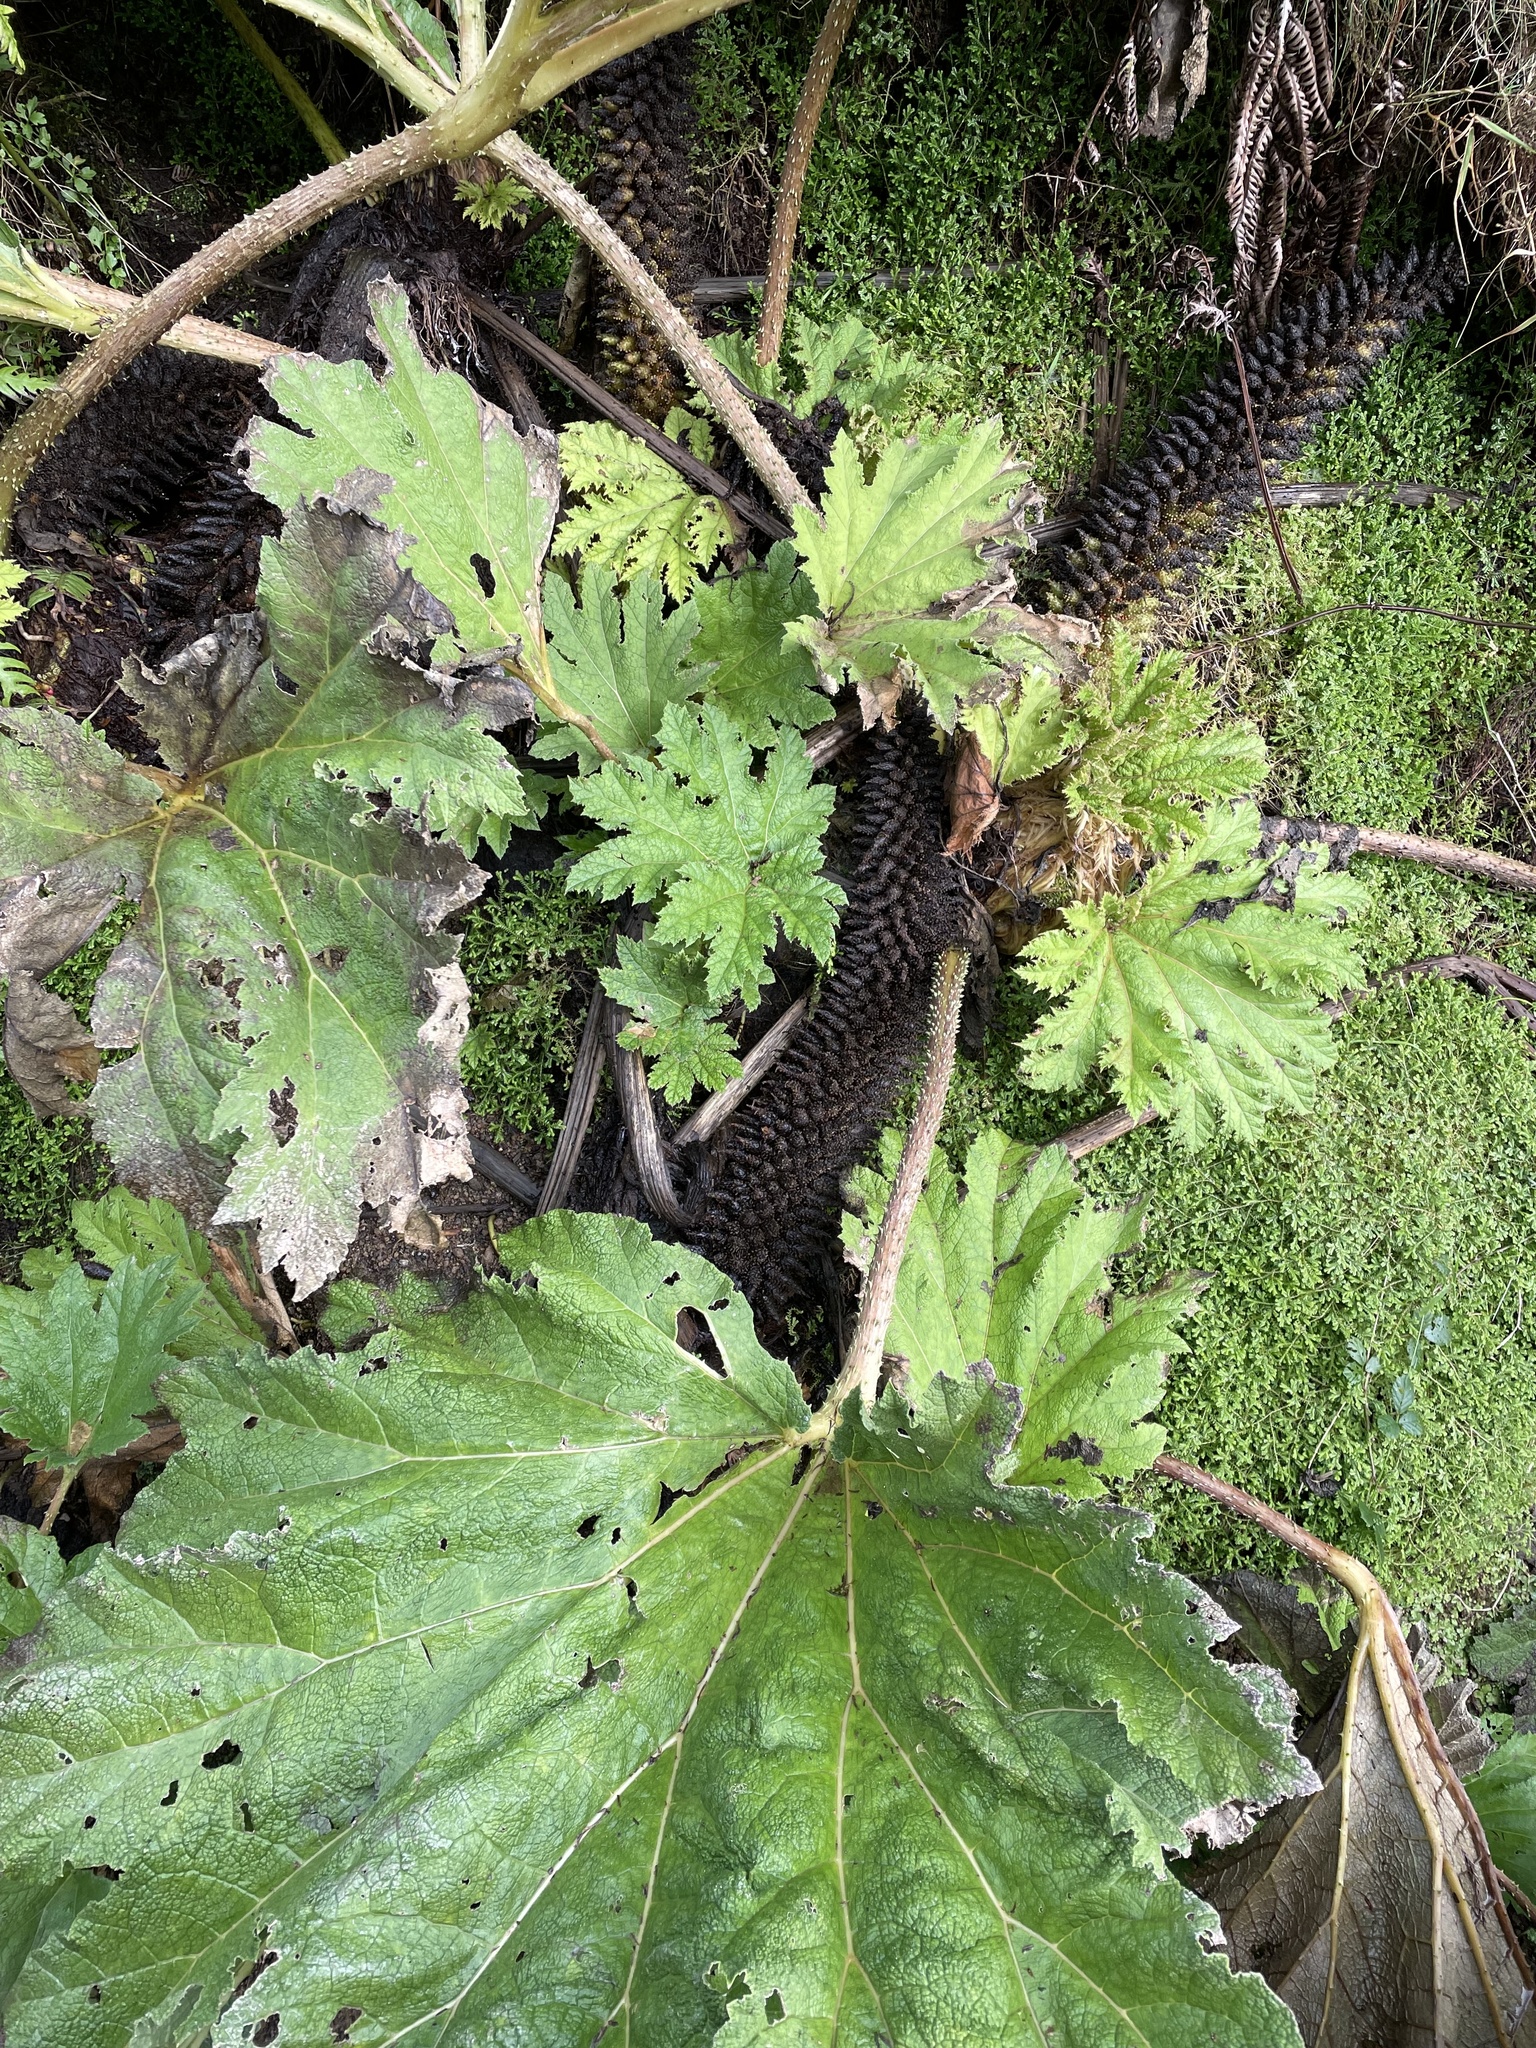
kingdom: Plantae
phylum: Tracheophyta
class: Magnoliopsida
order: Gunnerales
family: Gunneraceae
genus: Gunnera
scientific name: Gunnera tinctoria
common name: Giant-rhubarb
